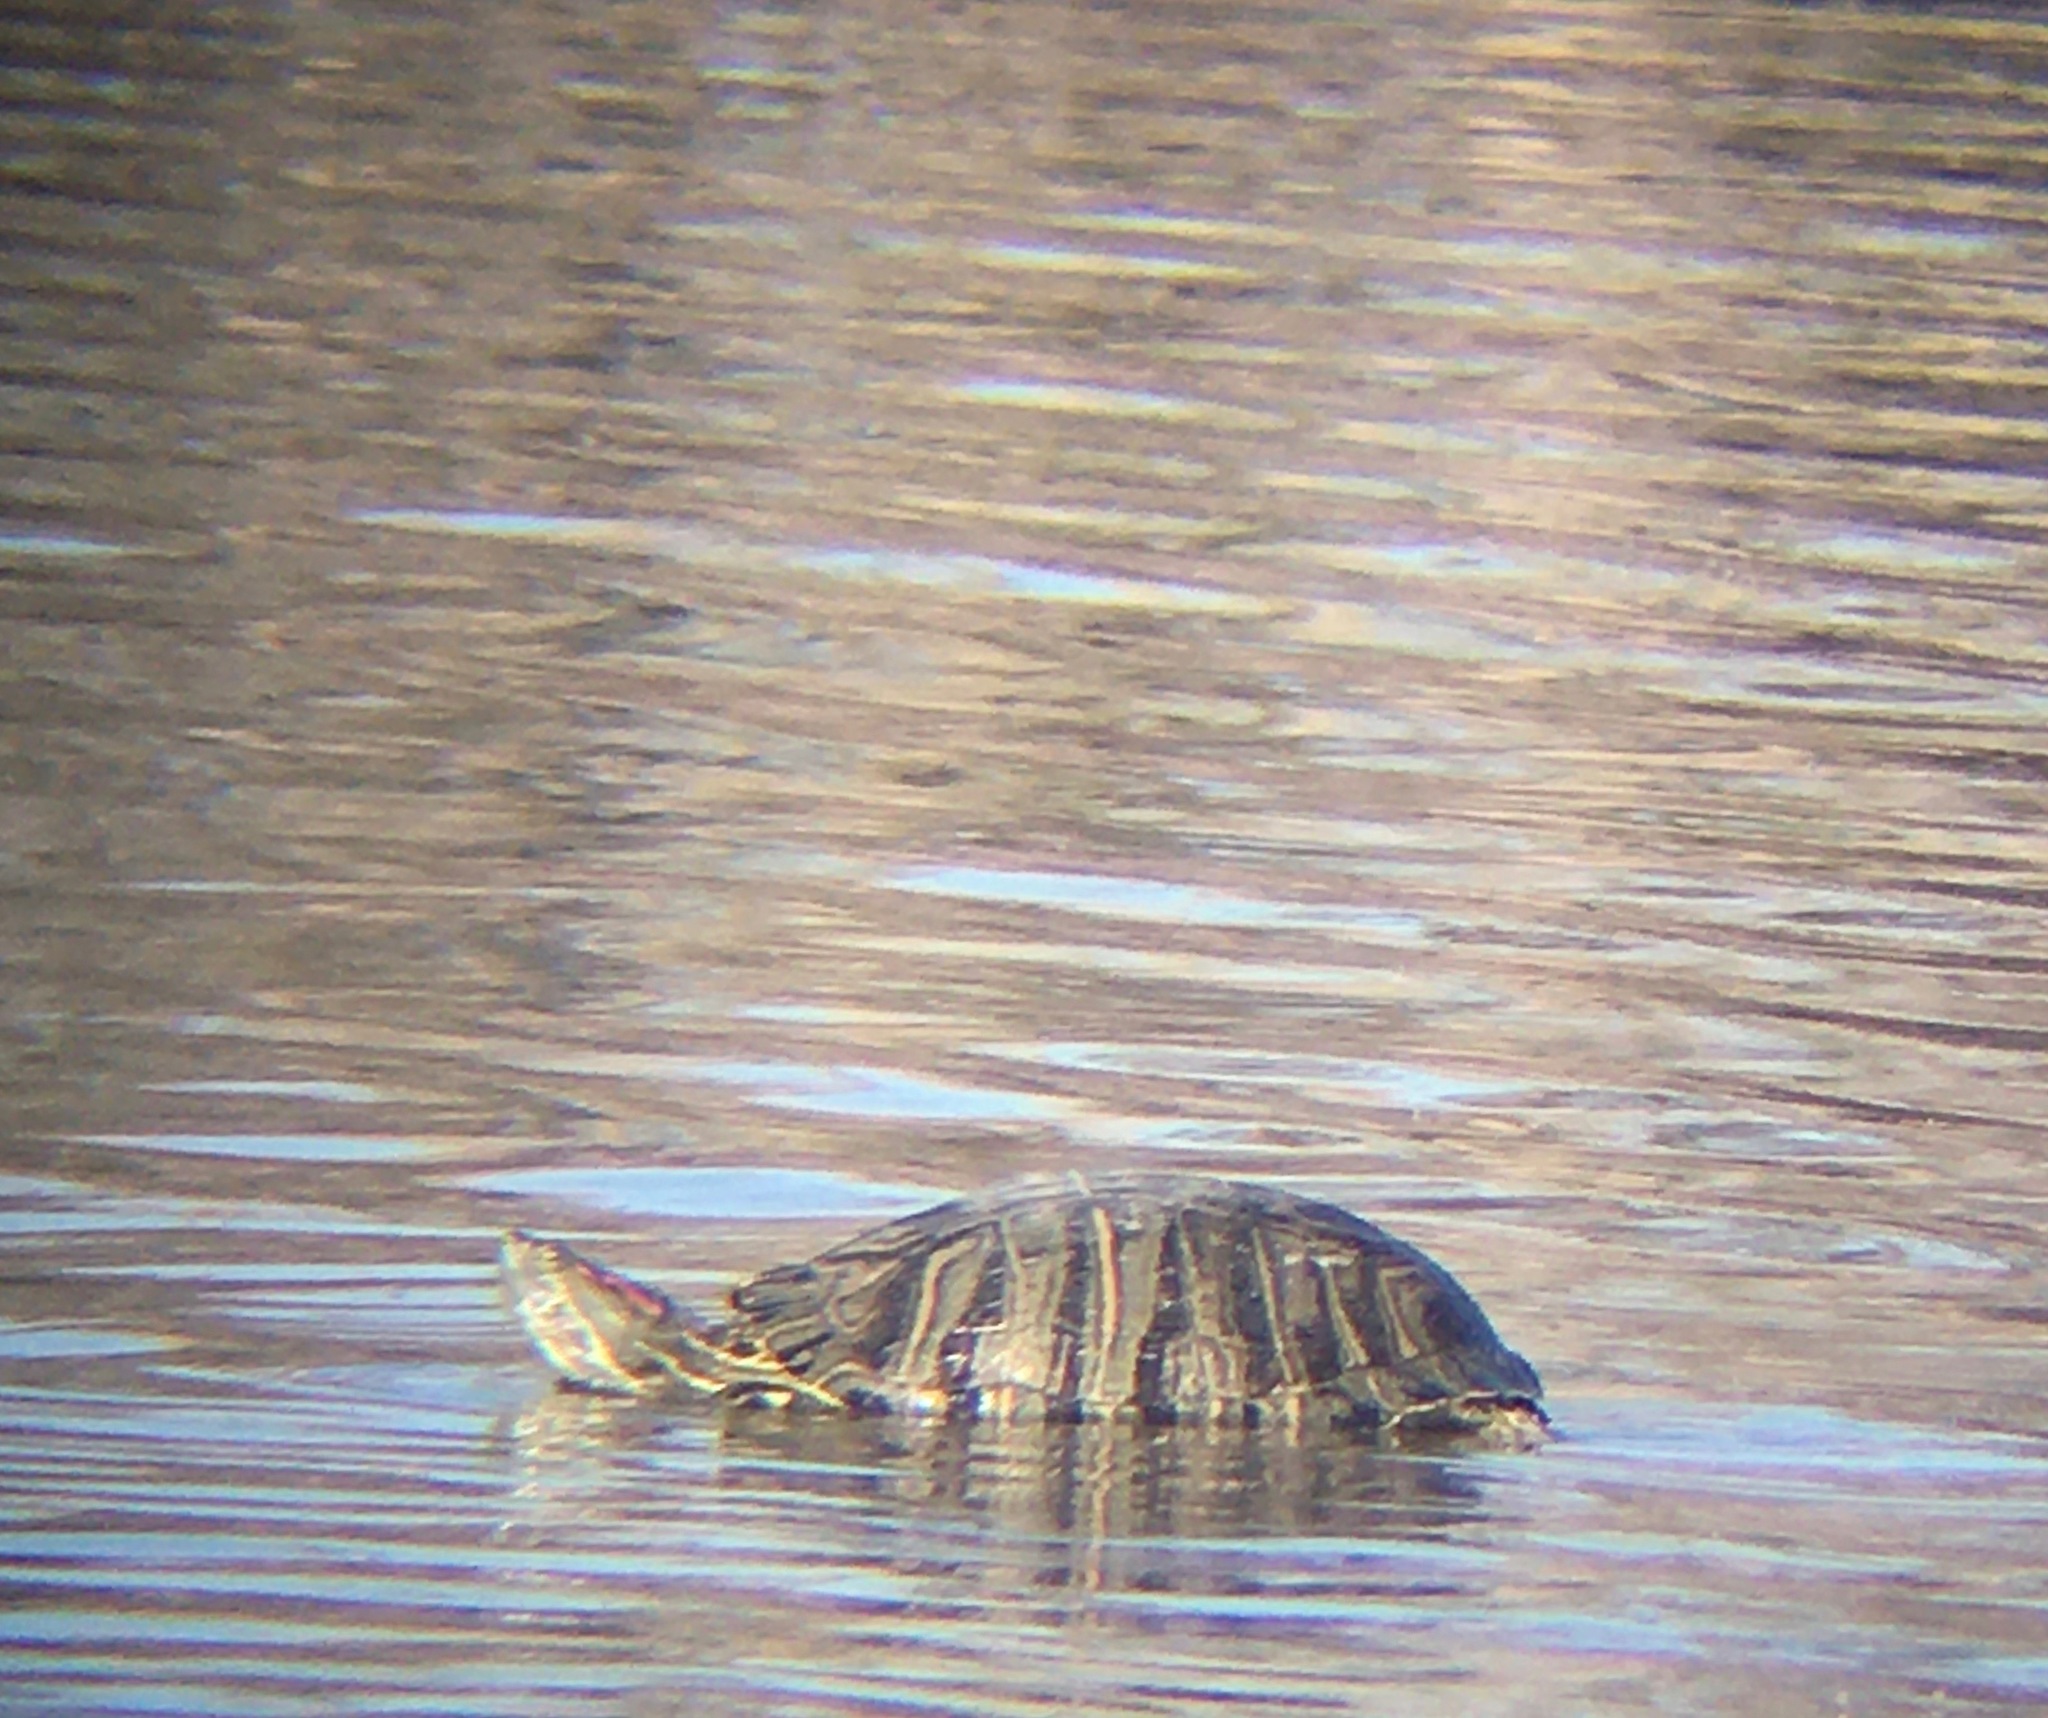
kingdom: Animalia
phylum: Chordata
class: Testudines
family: Emydidae
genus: Trachemys
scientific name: Trachemys scripta
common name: Slider
